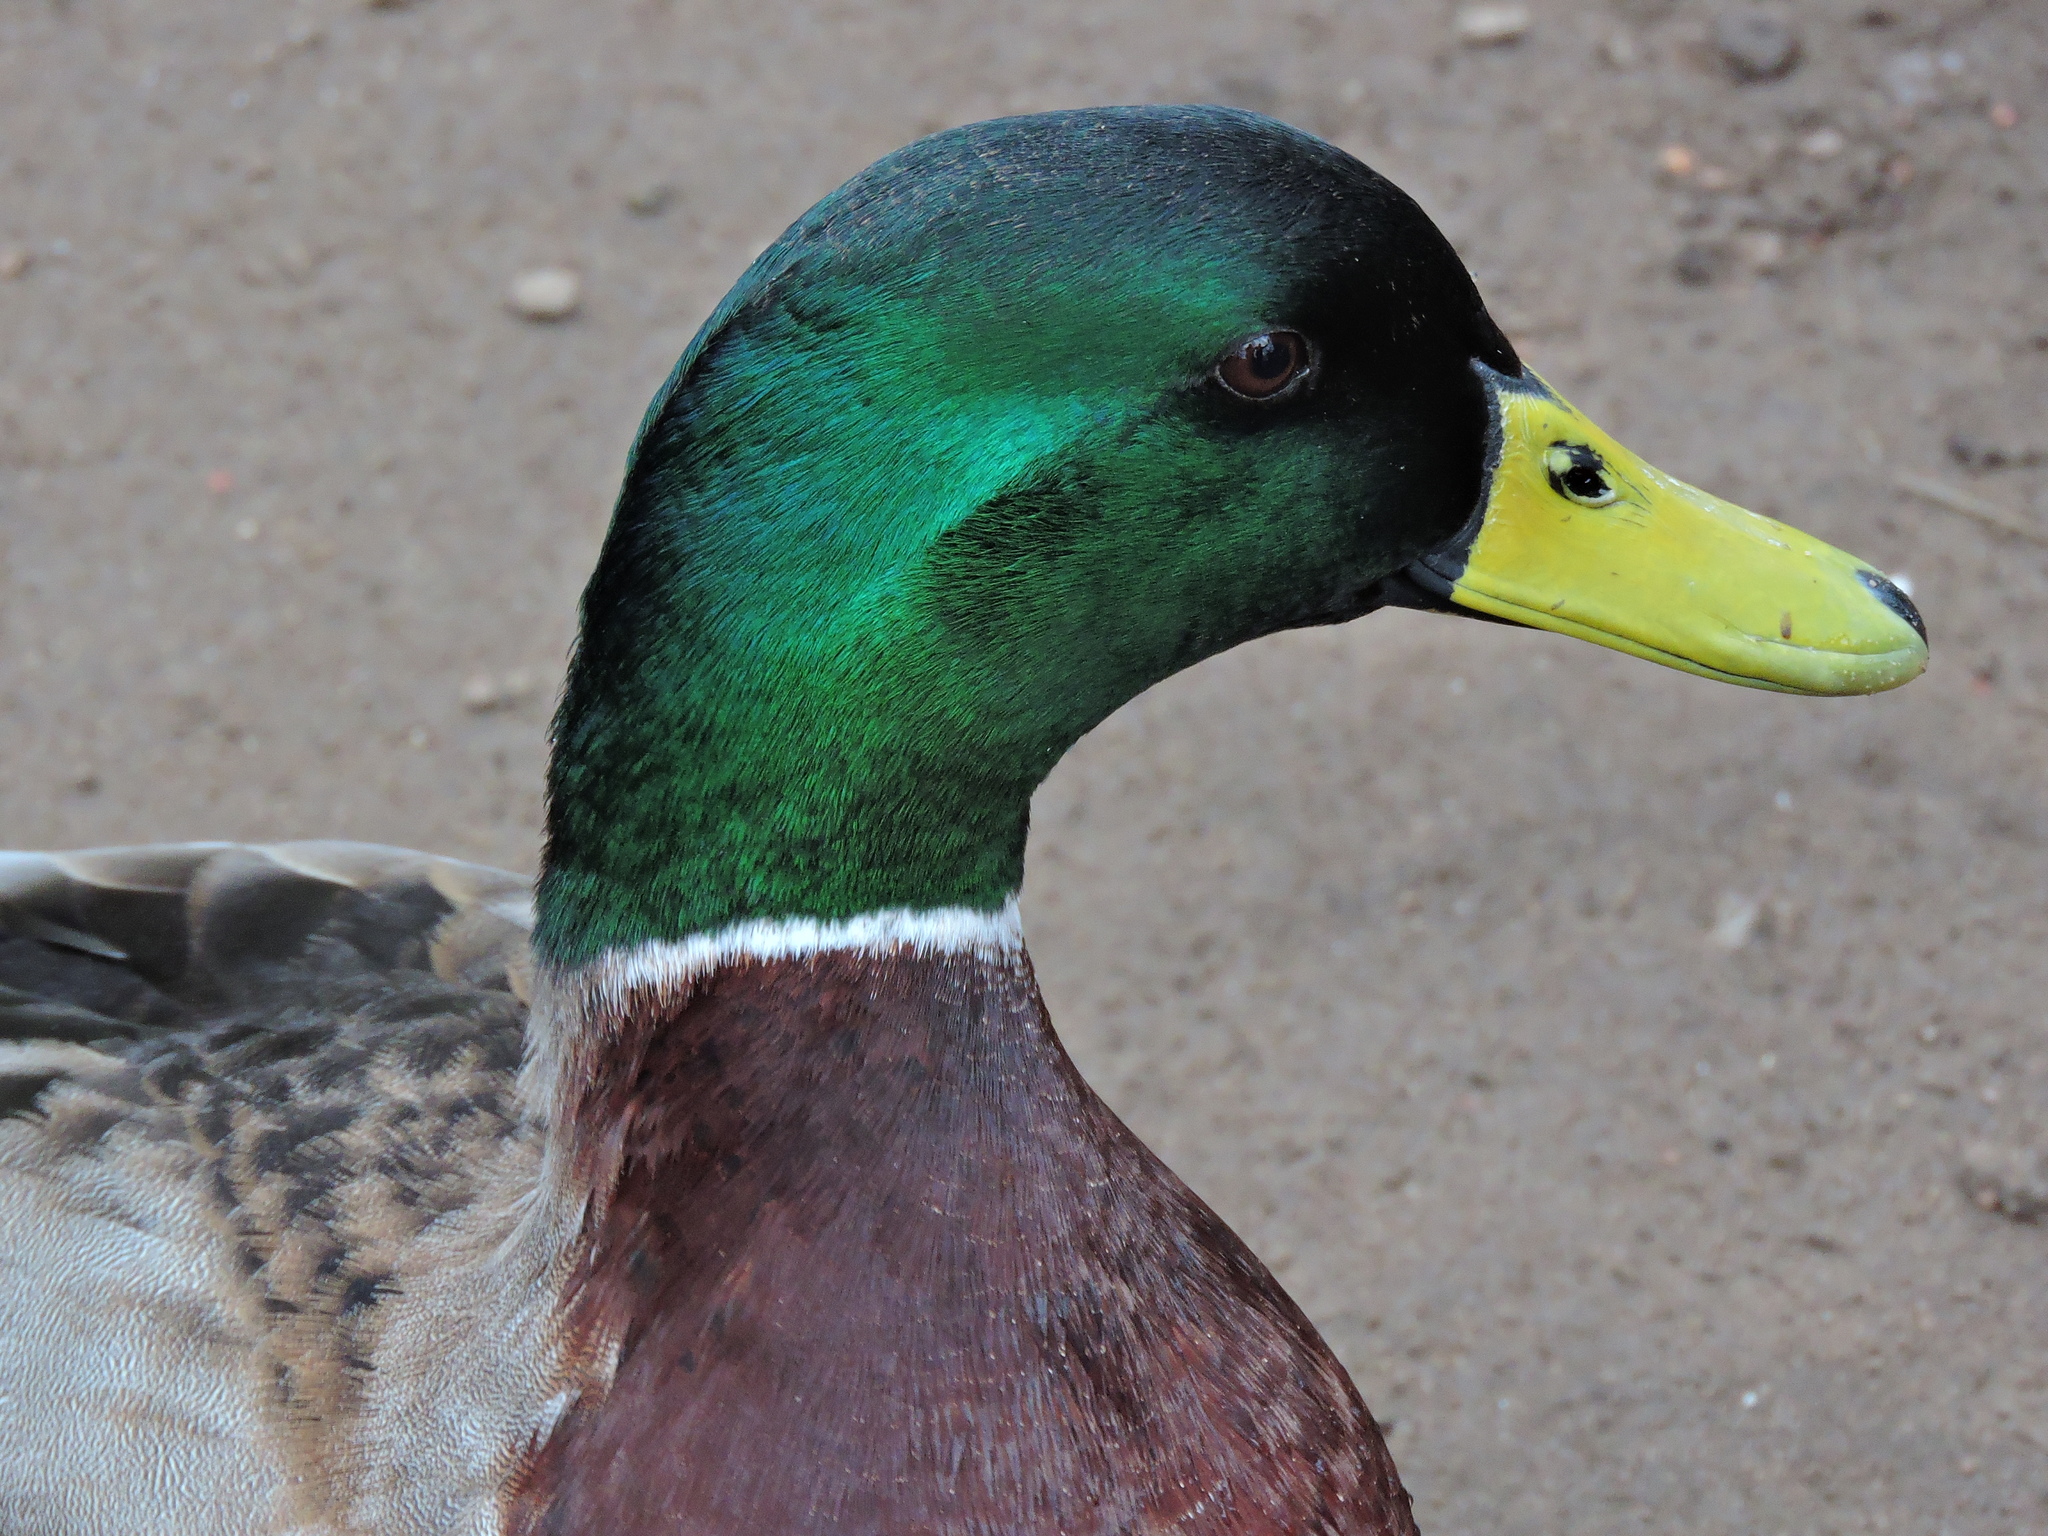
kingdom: Animalia
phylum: Chordata
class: Aves
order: Anseriformes
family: Anatidae
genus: Anas
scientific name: Anas platyrhynchos
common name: Mallard
